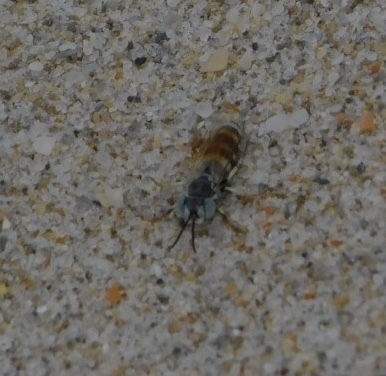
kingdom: Animalia
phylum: Arthropoda
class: Insecta
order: Hymenoptera
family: Crabronidae
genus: Microbembex
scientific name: Microbembex monodonta
